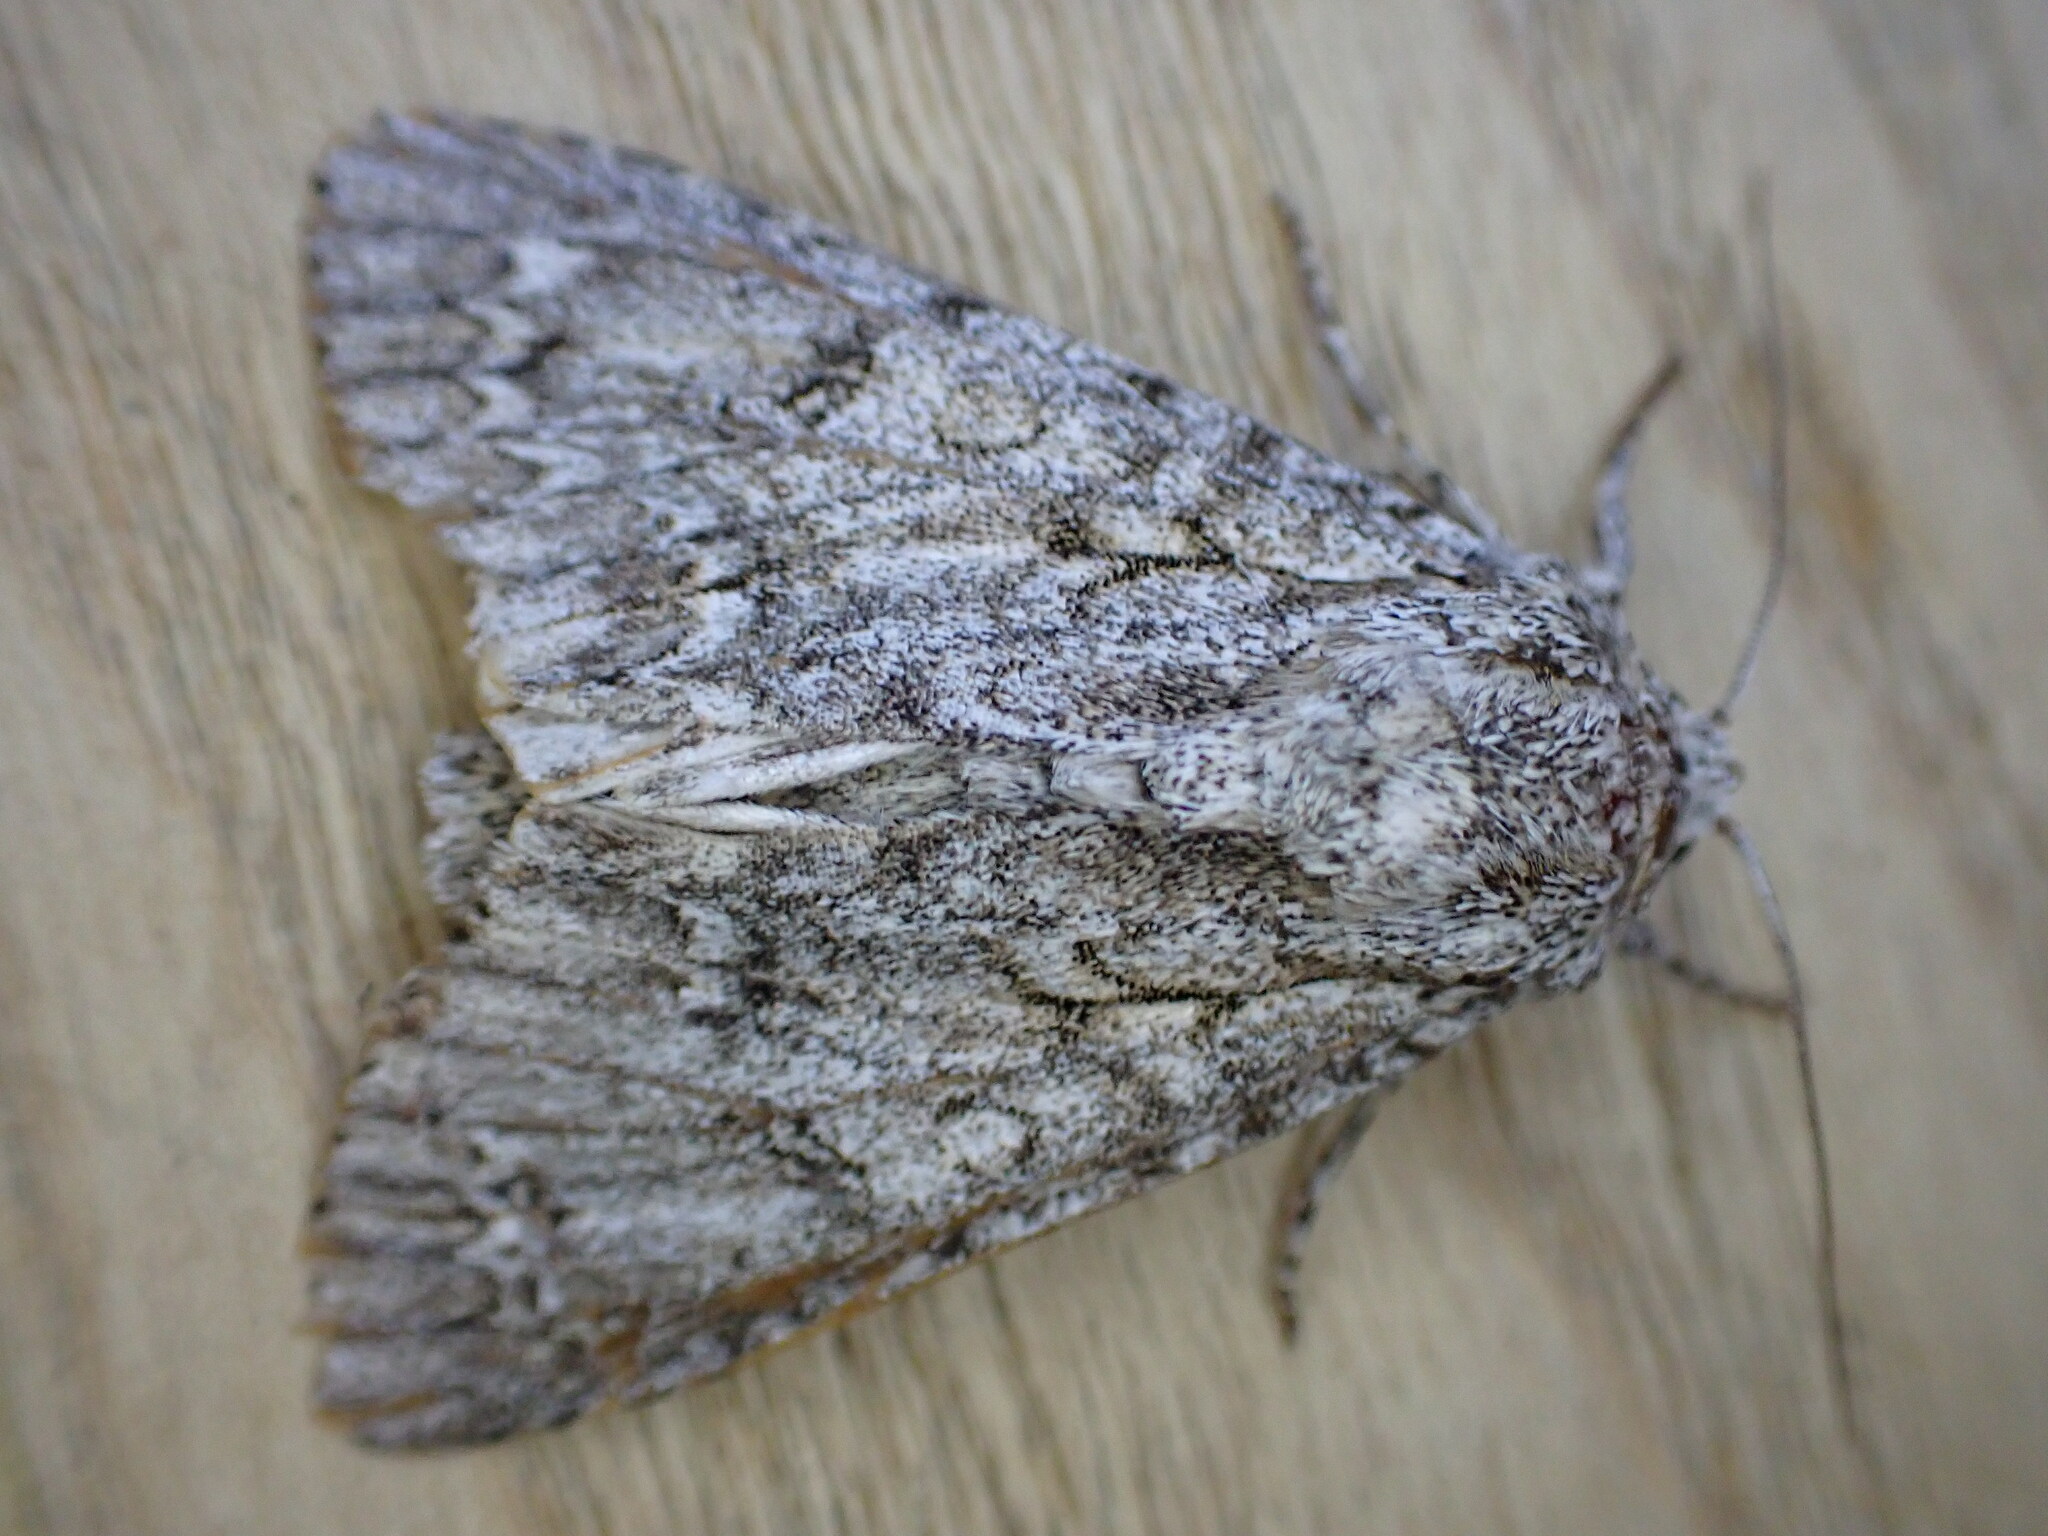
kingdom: Animalia
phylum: Arthropoda
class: Insecta
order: Lepidoptera
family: Noctuidae
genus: Acronicta
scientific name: Acronicta aceris
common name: Sycamore
